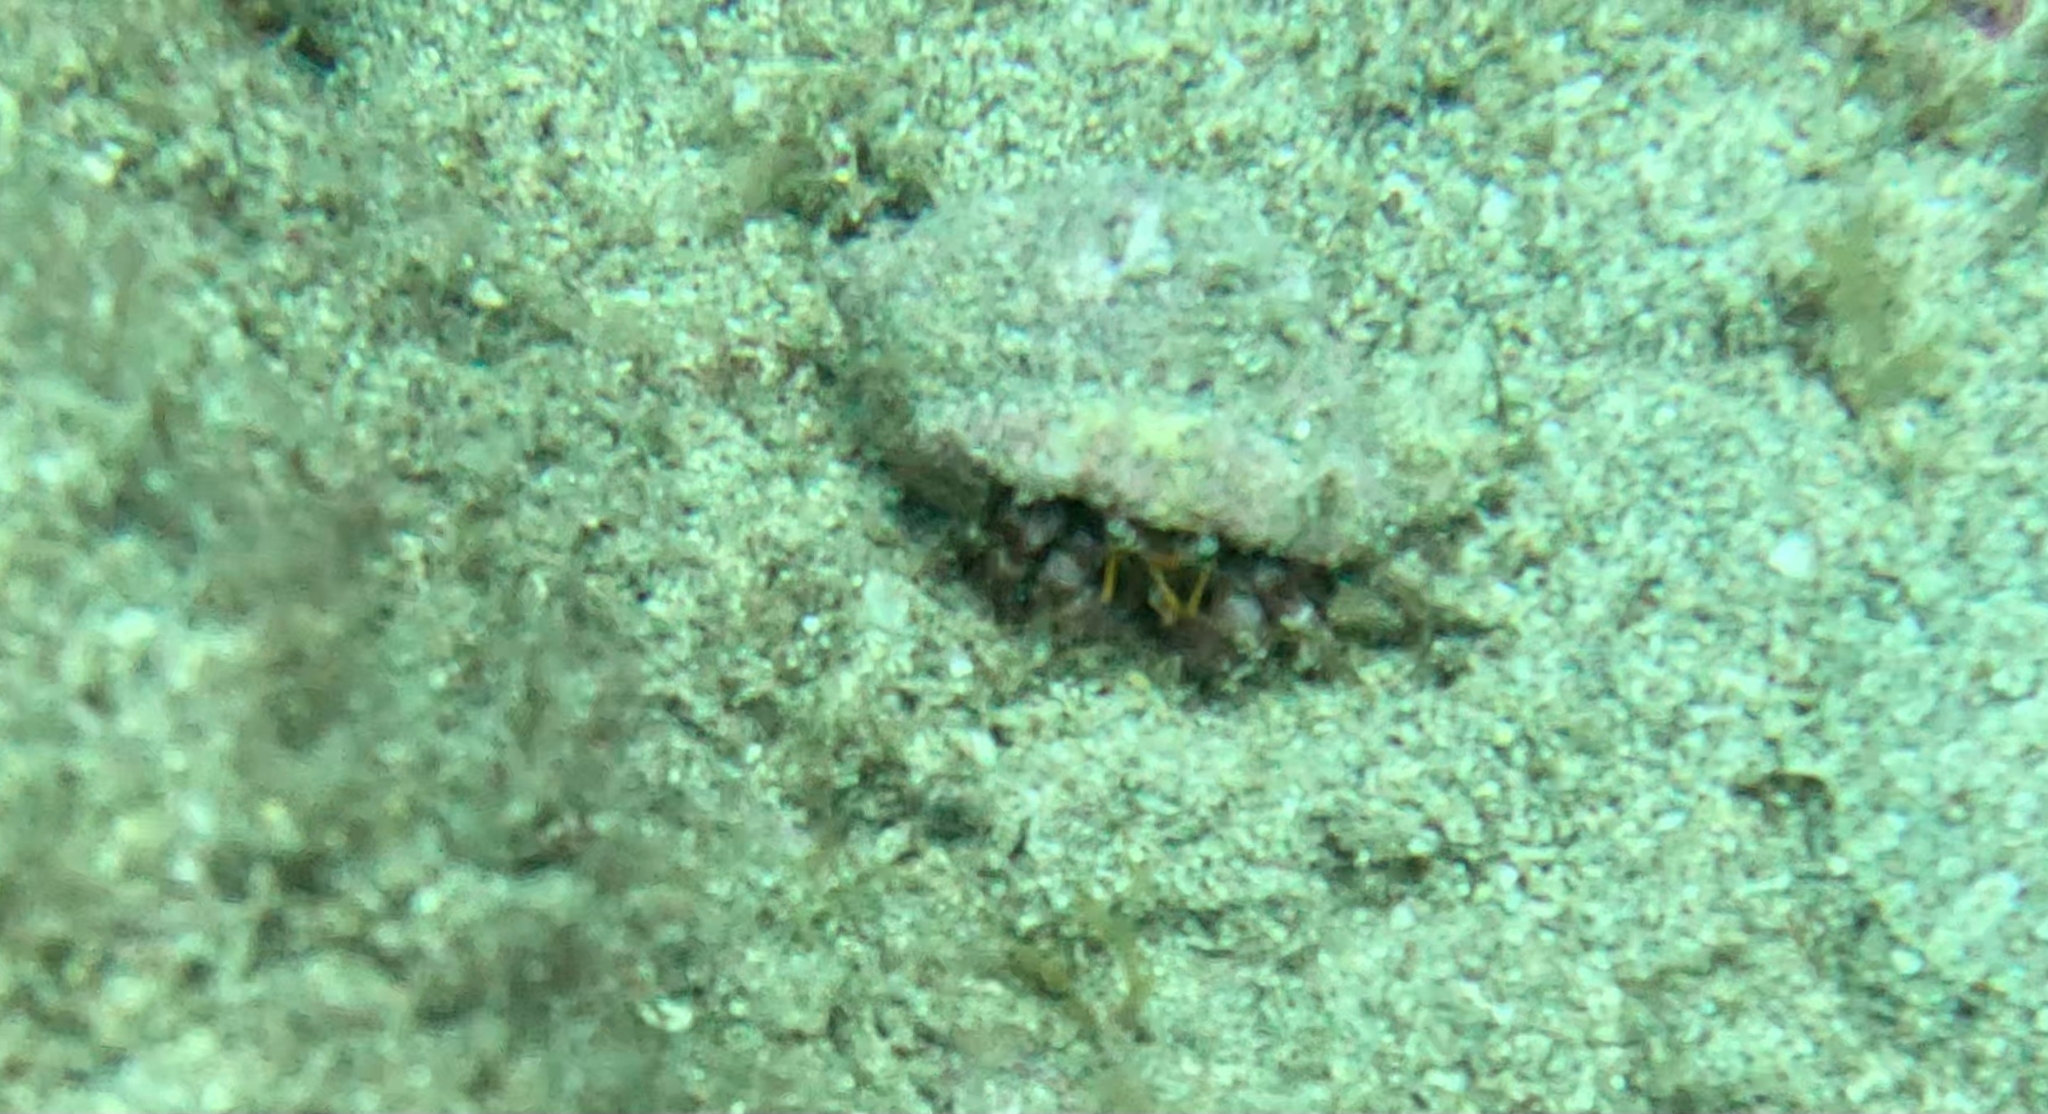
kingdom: Animalia
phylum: Arthropoda
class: Malacostraca
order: Decapoda
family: Diogenidae
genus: Dardanus
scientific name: Dardanus calidus
